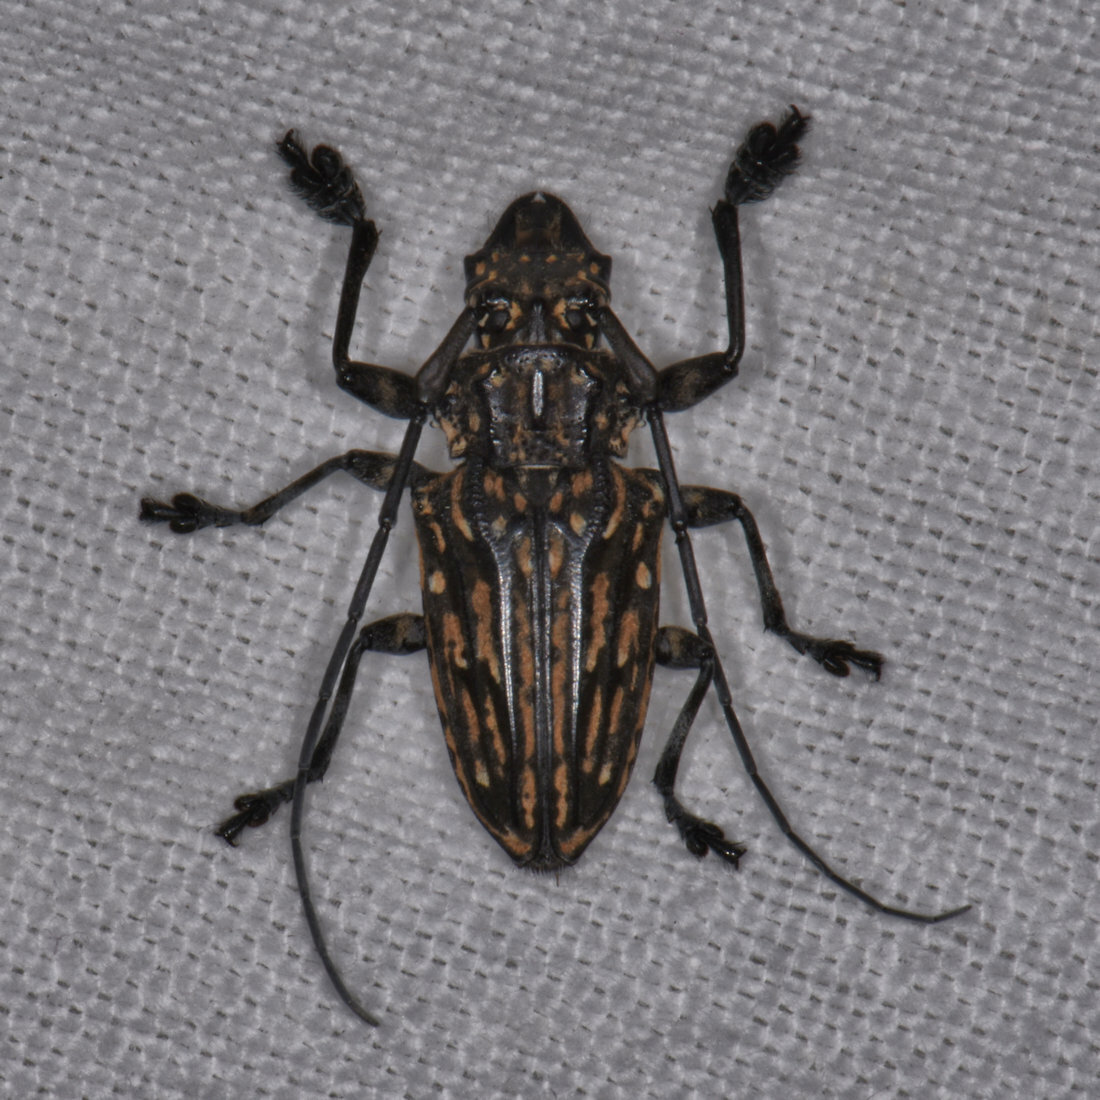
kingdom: Animalia
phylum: Arthropoda
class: Insecta
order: Coleoptera
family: Cerambycidae
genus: Steirastoma
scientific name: Steirastoma histrionicum
